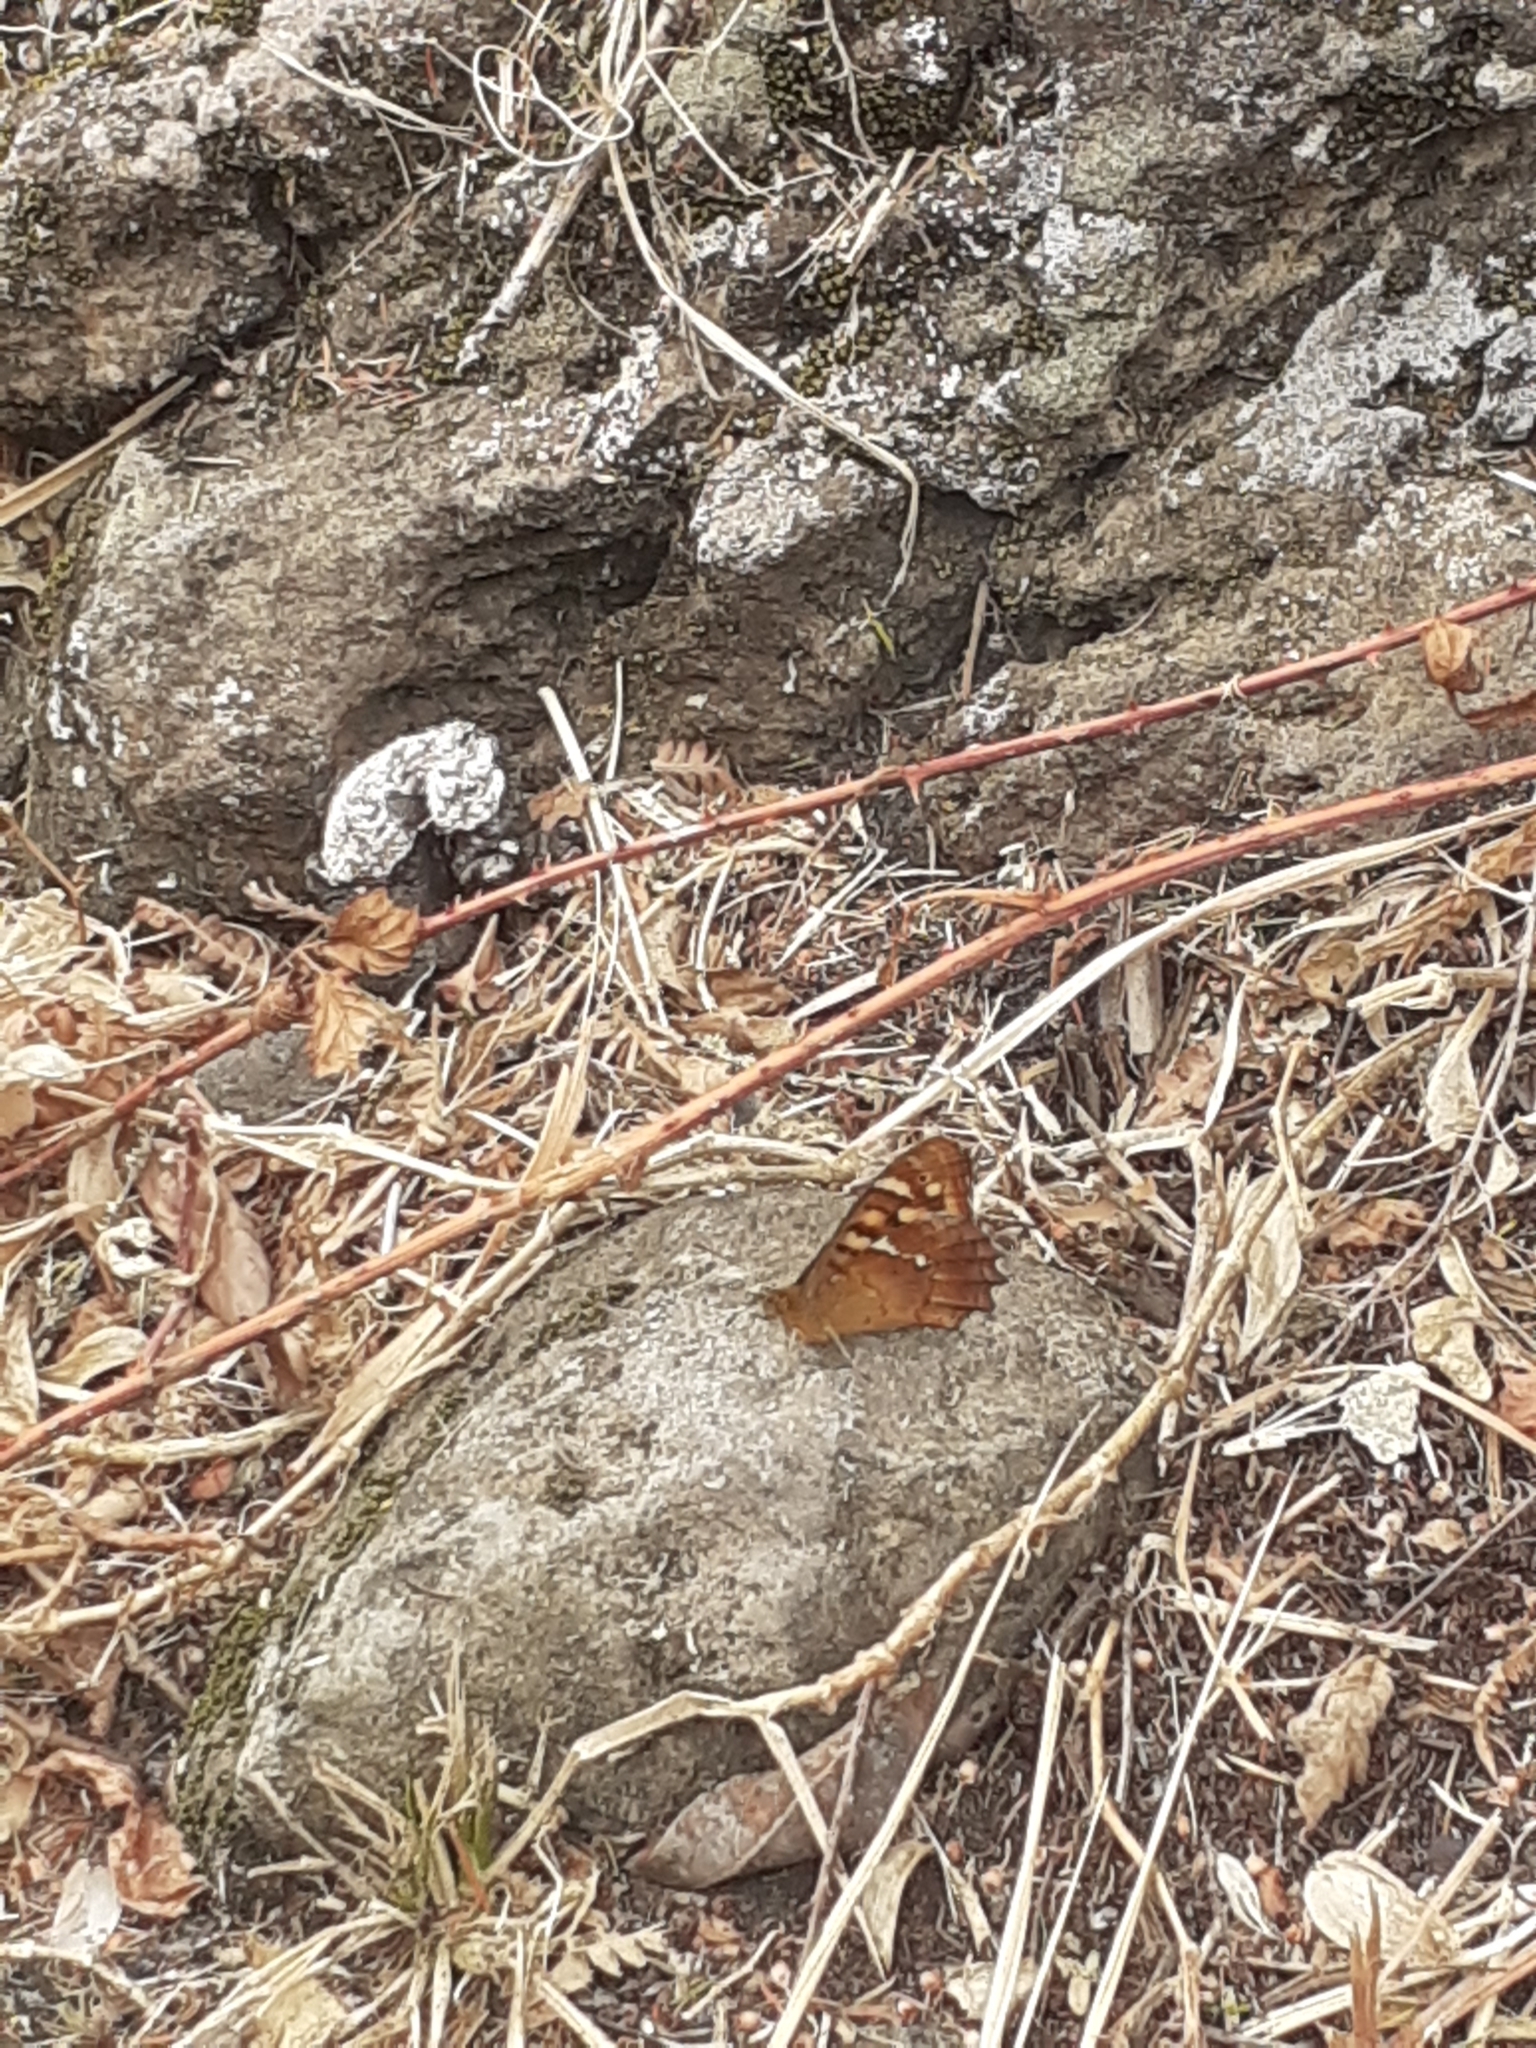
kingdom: Animalia
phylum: Arthropoda
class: Insecta
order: Lepidoptera
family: Nymphalidae
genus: Pararge
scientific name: Pararge aegeria
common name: Speckled wood
